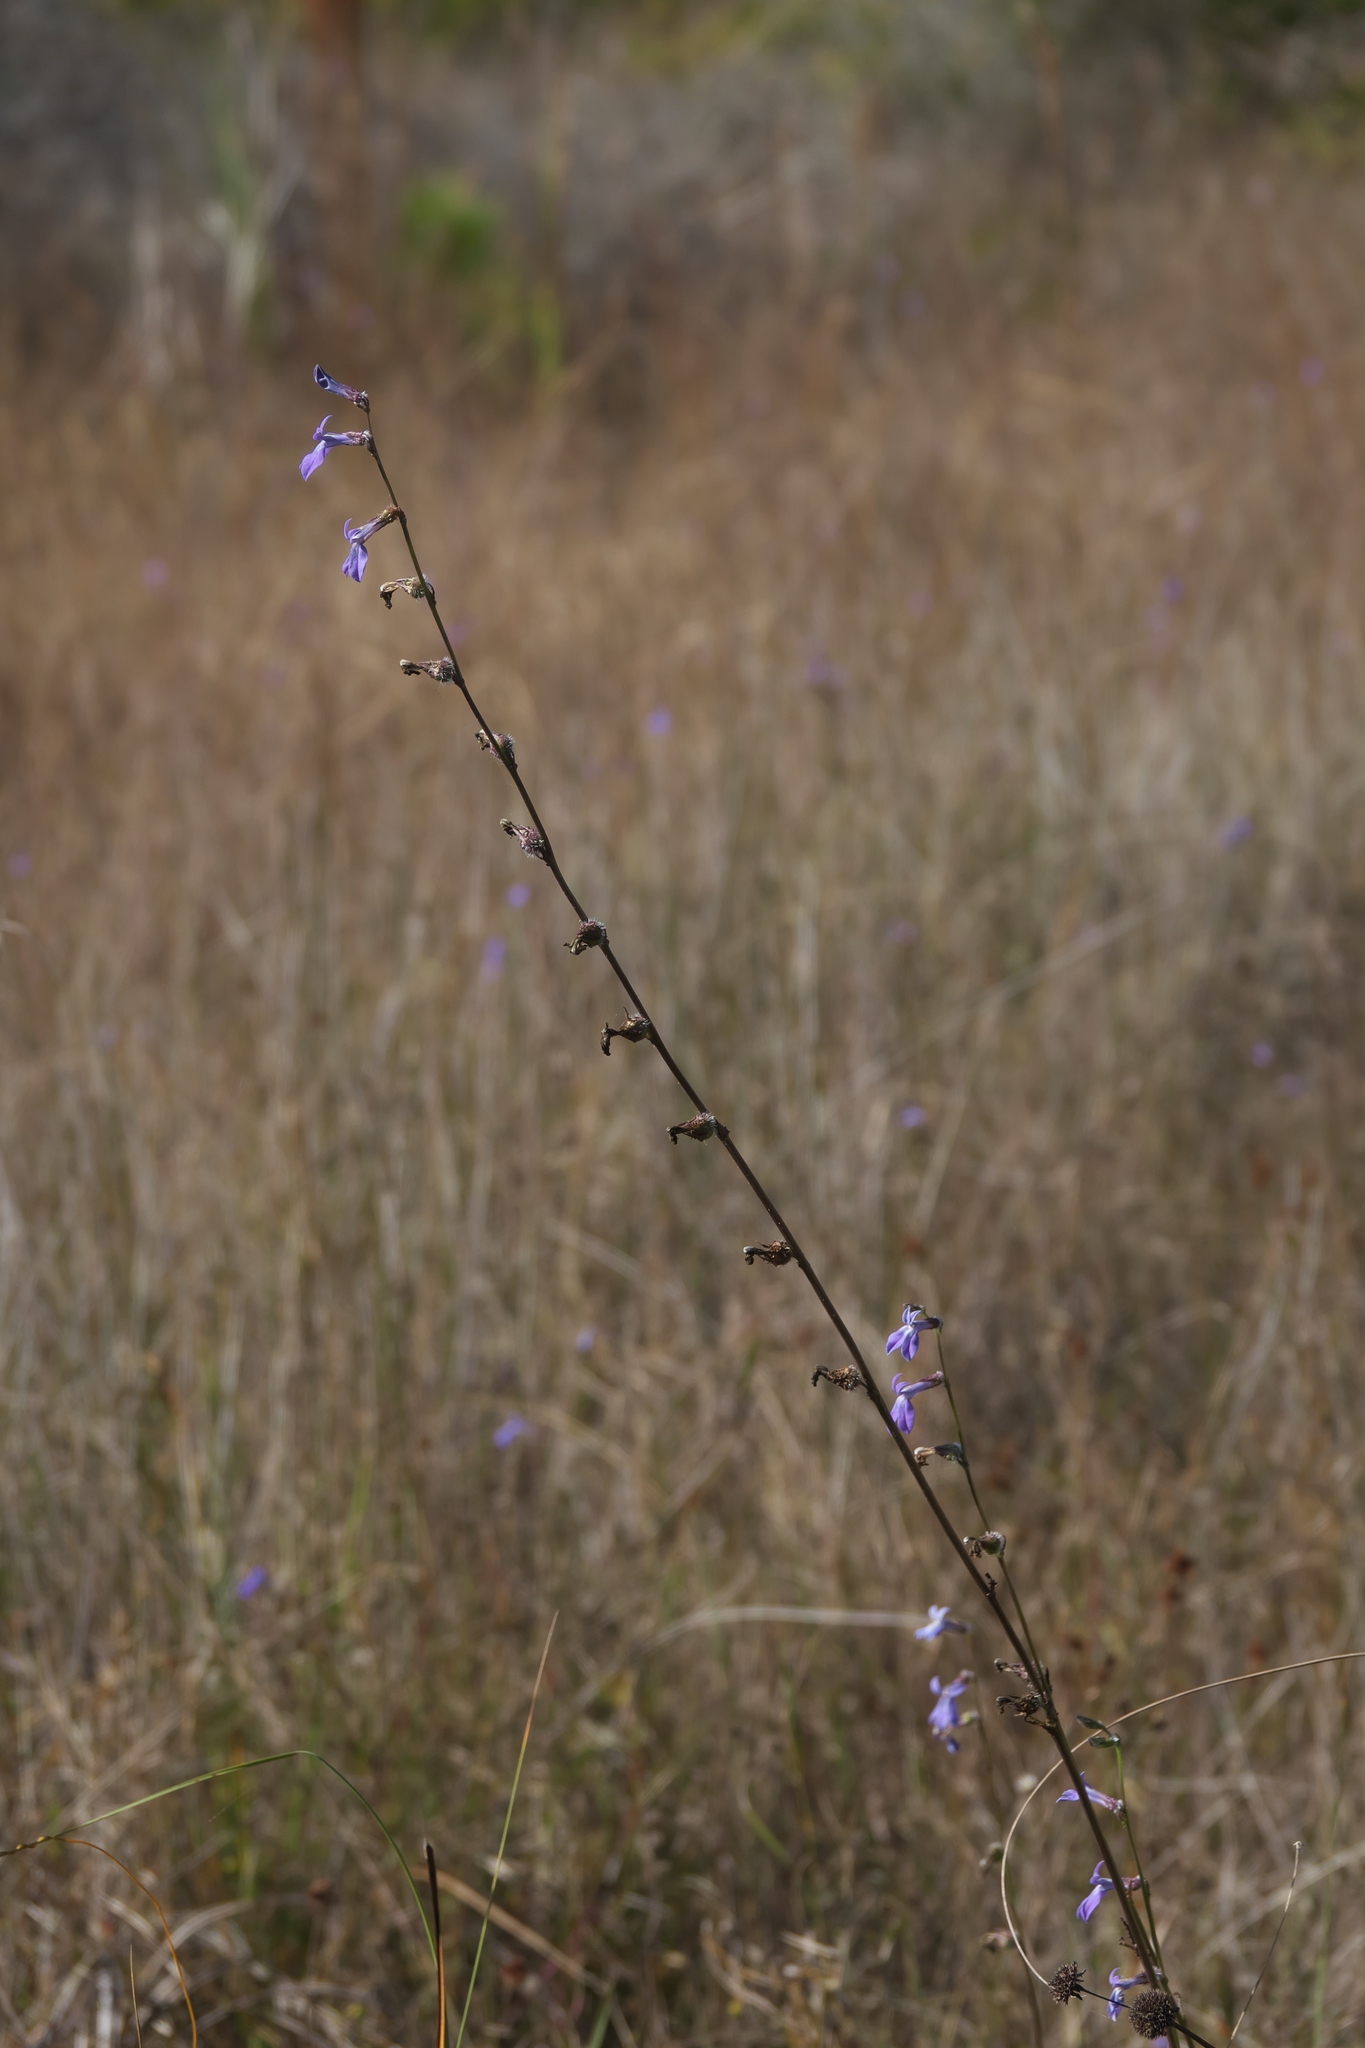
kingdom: Plantae
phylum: Tracheophyta
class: Magnoliopsida
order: Asterales
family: Campanulaceae
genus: Lobelia
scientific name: Lobelia glandulosa
